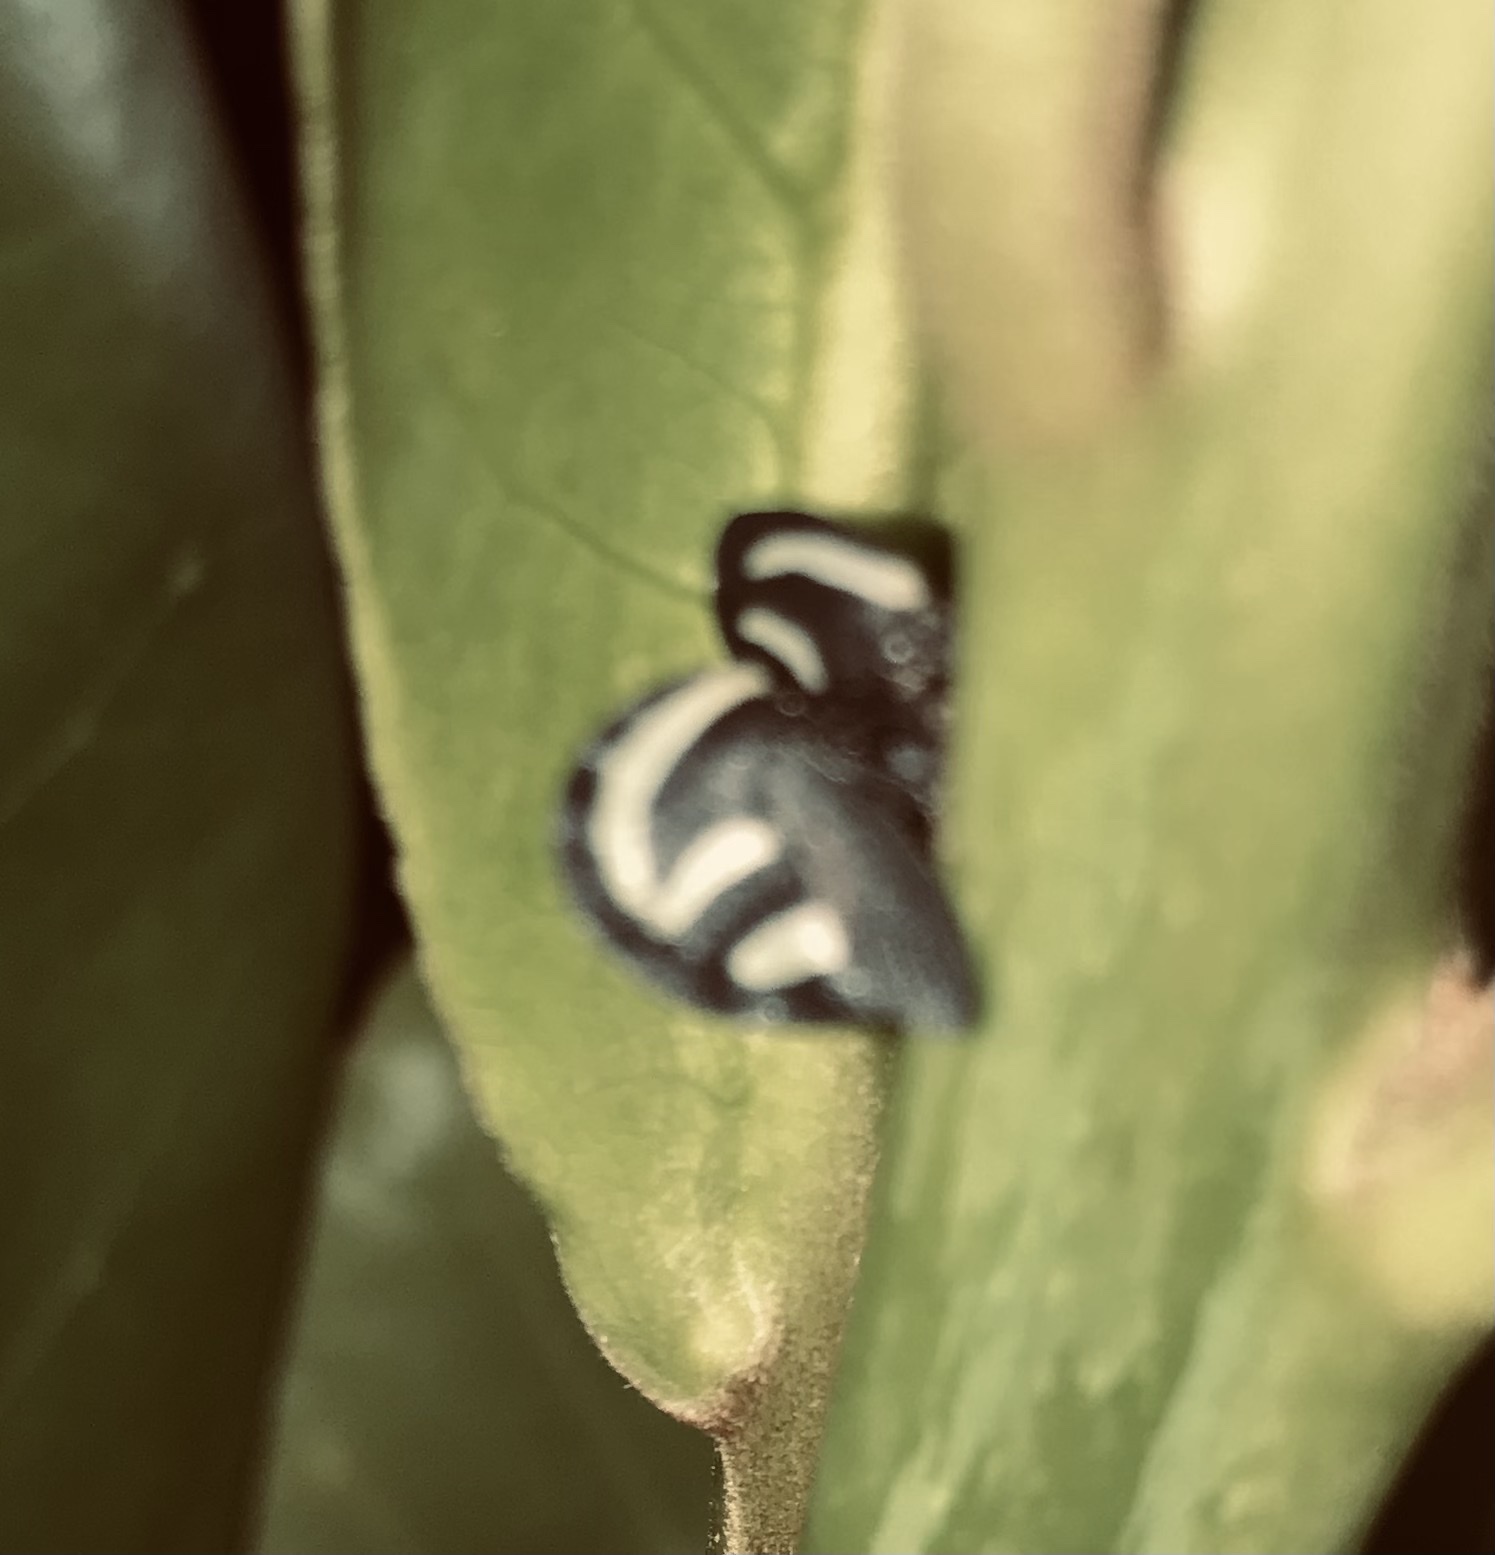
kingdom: Animalia
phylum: Arthropoda
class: Insecta
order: Hemiptera
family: Membracidae
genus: Membracis
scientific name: Membracis
